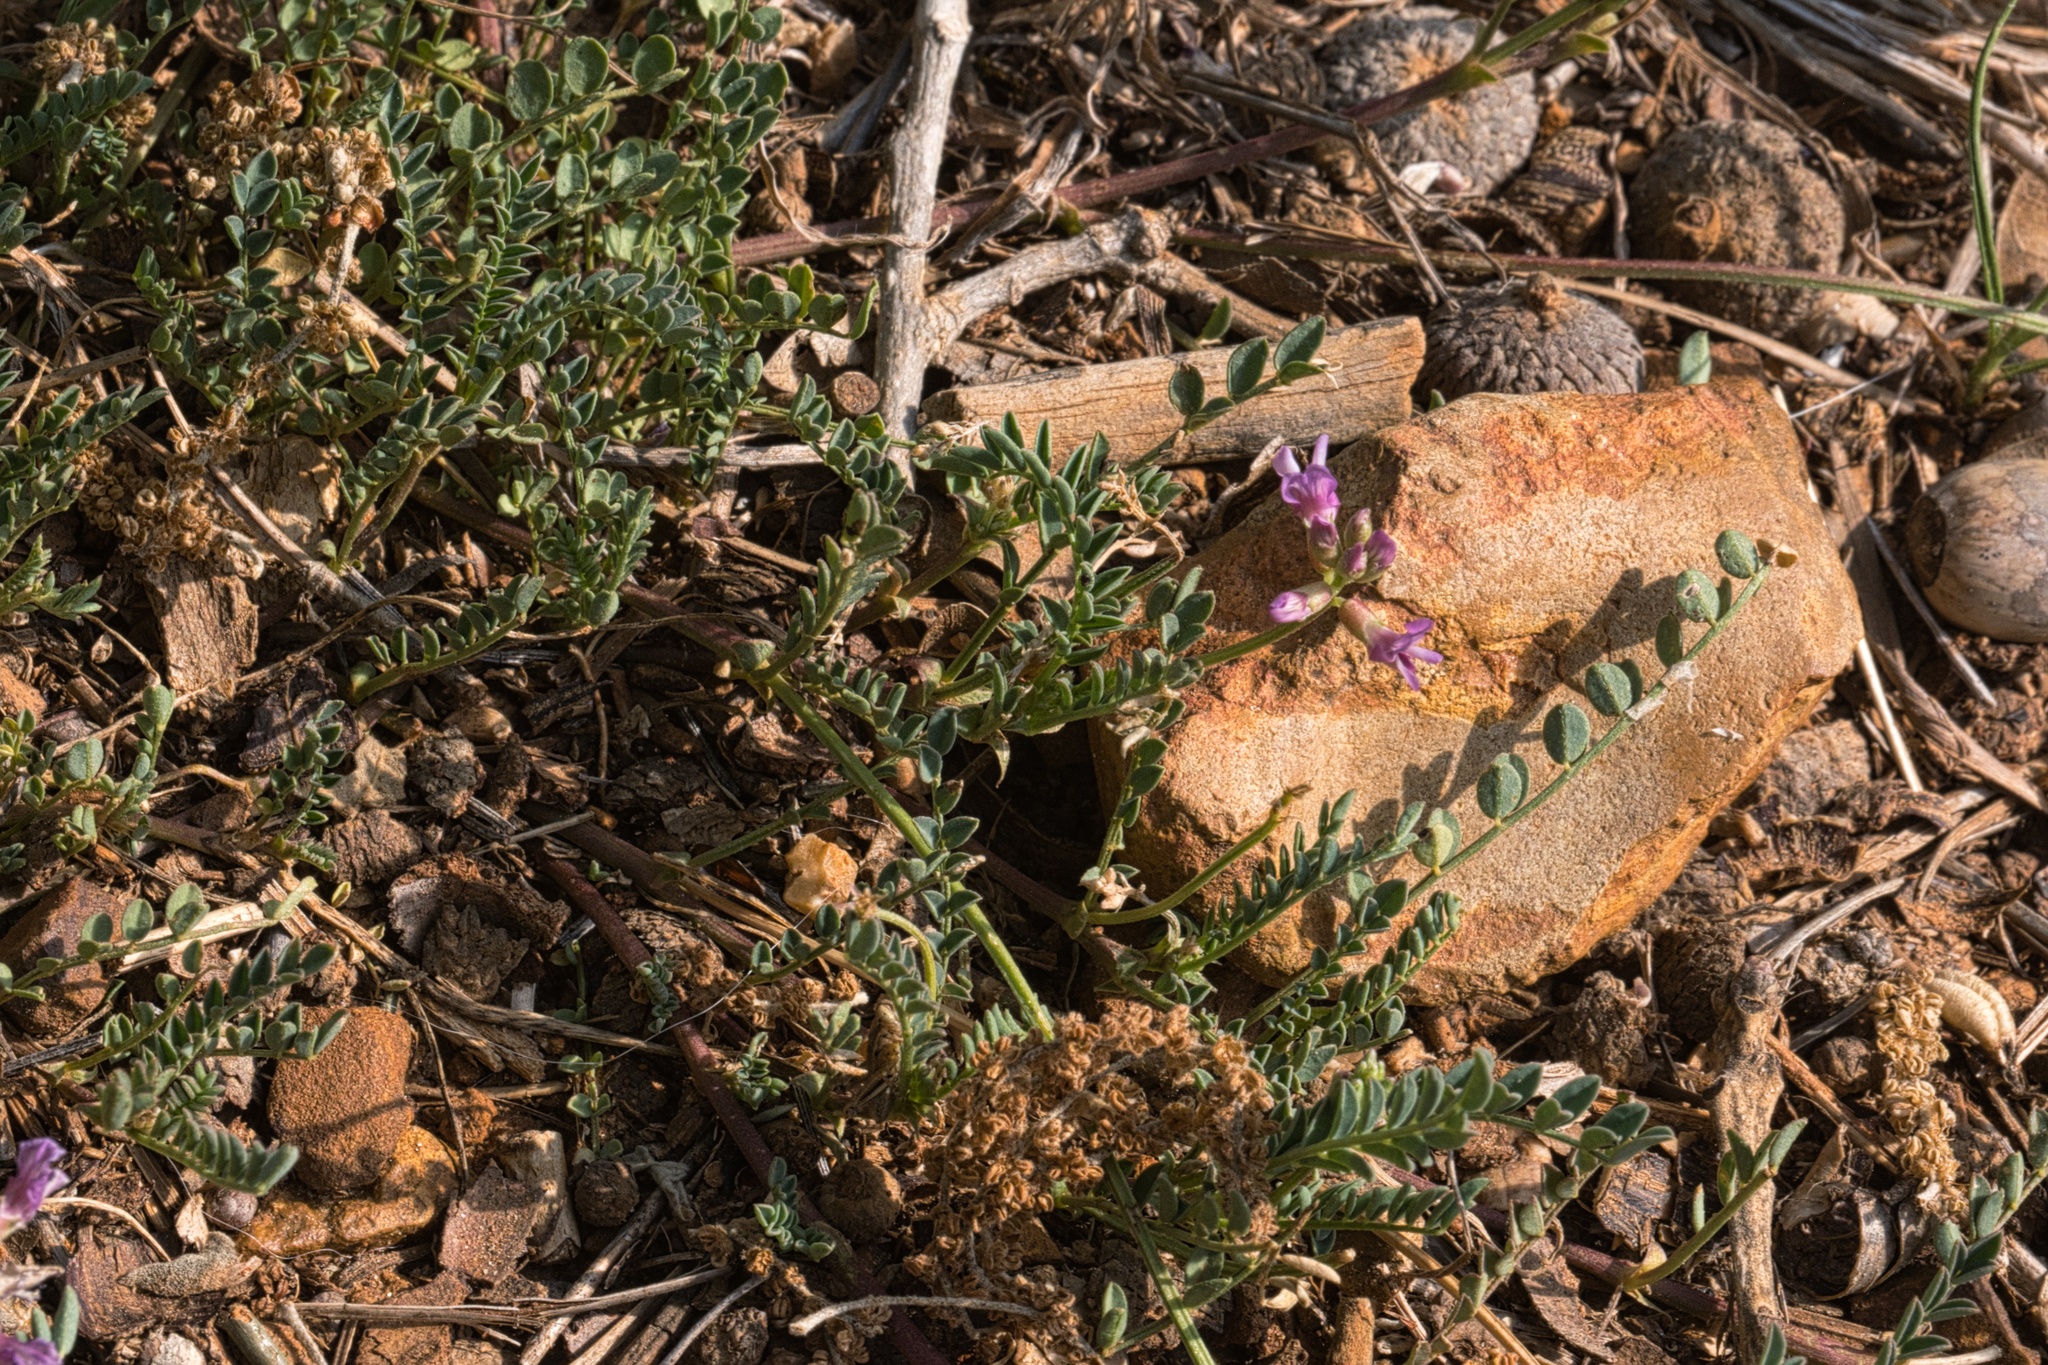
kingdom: Plantae
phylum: Tracheophyta
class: Magnoliopsida
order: Fabales
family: Fabaceae
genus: Astragalus
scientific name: Astragalus nuttallianus
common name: Smallflowered milkvetch
